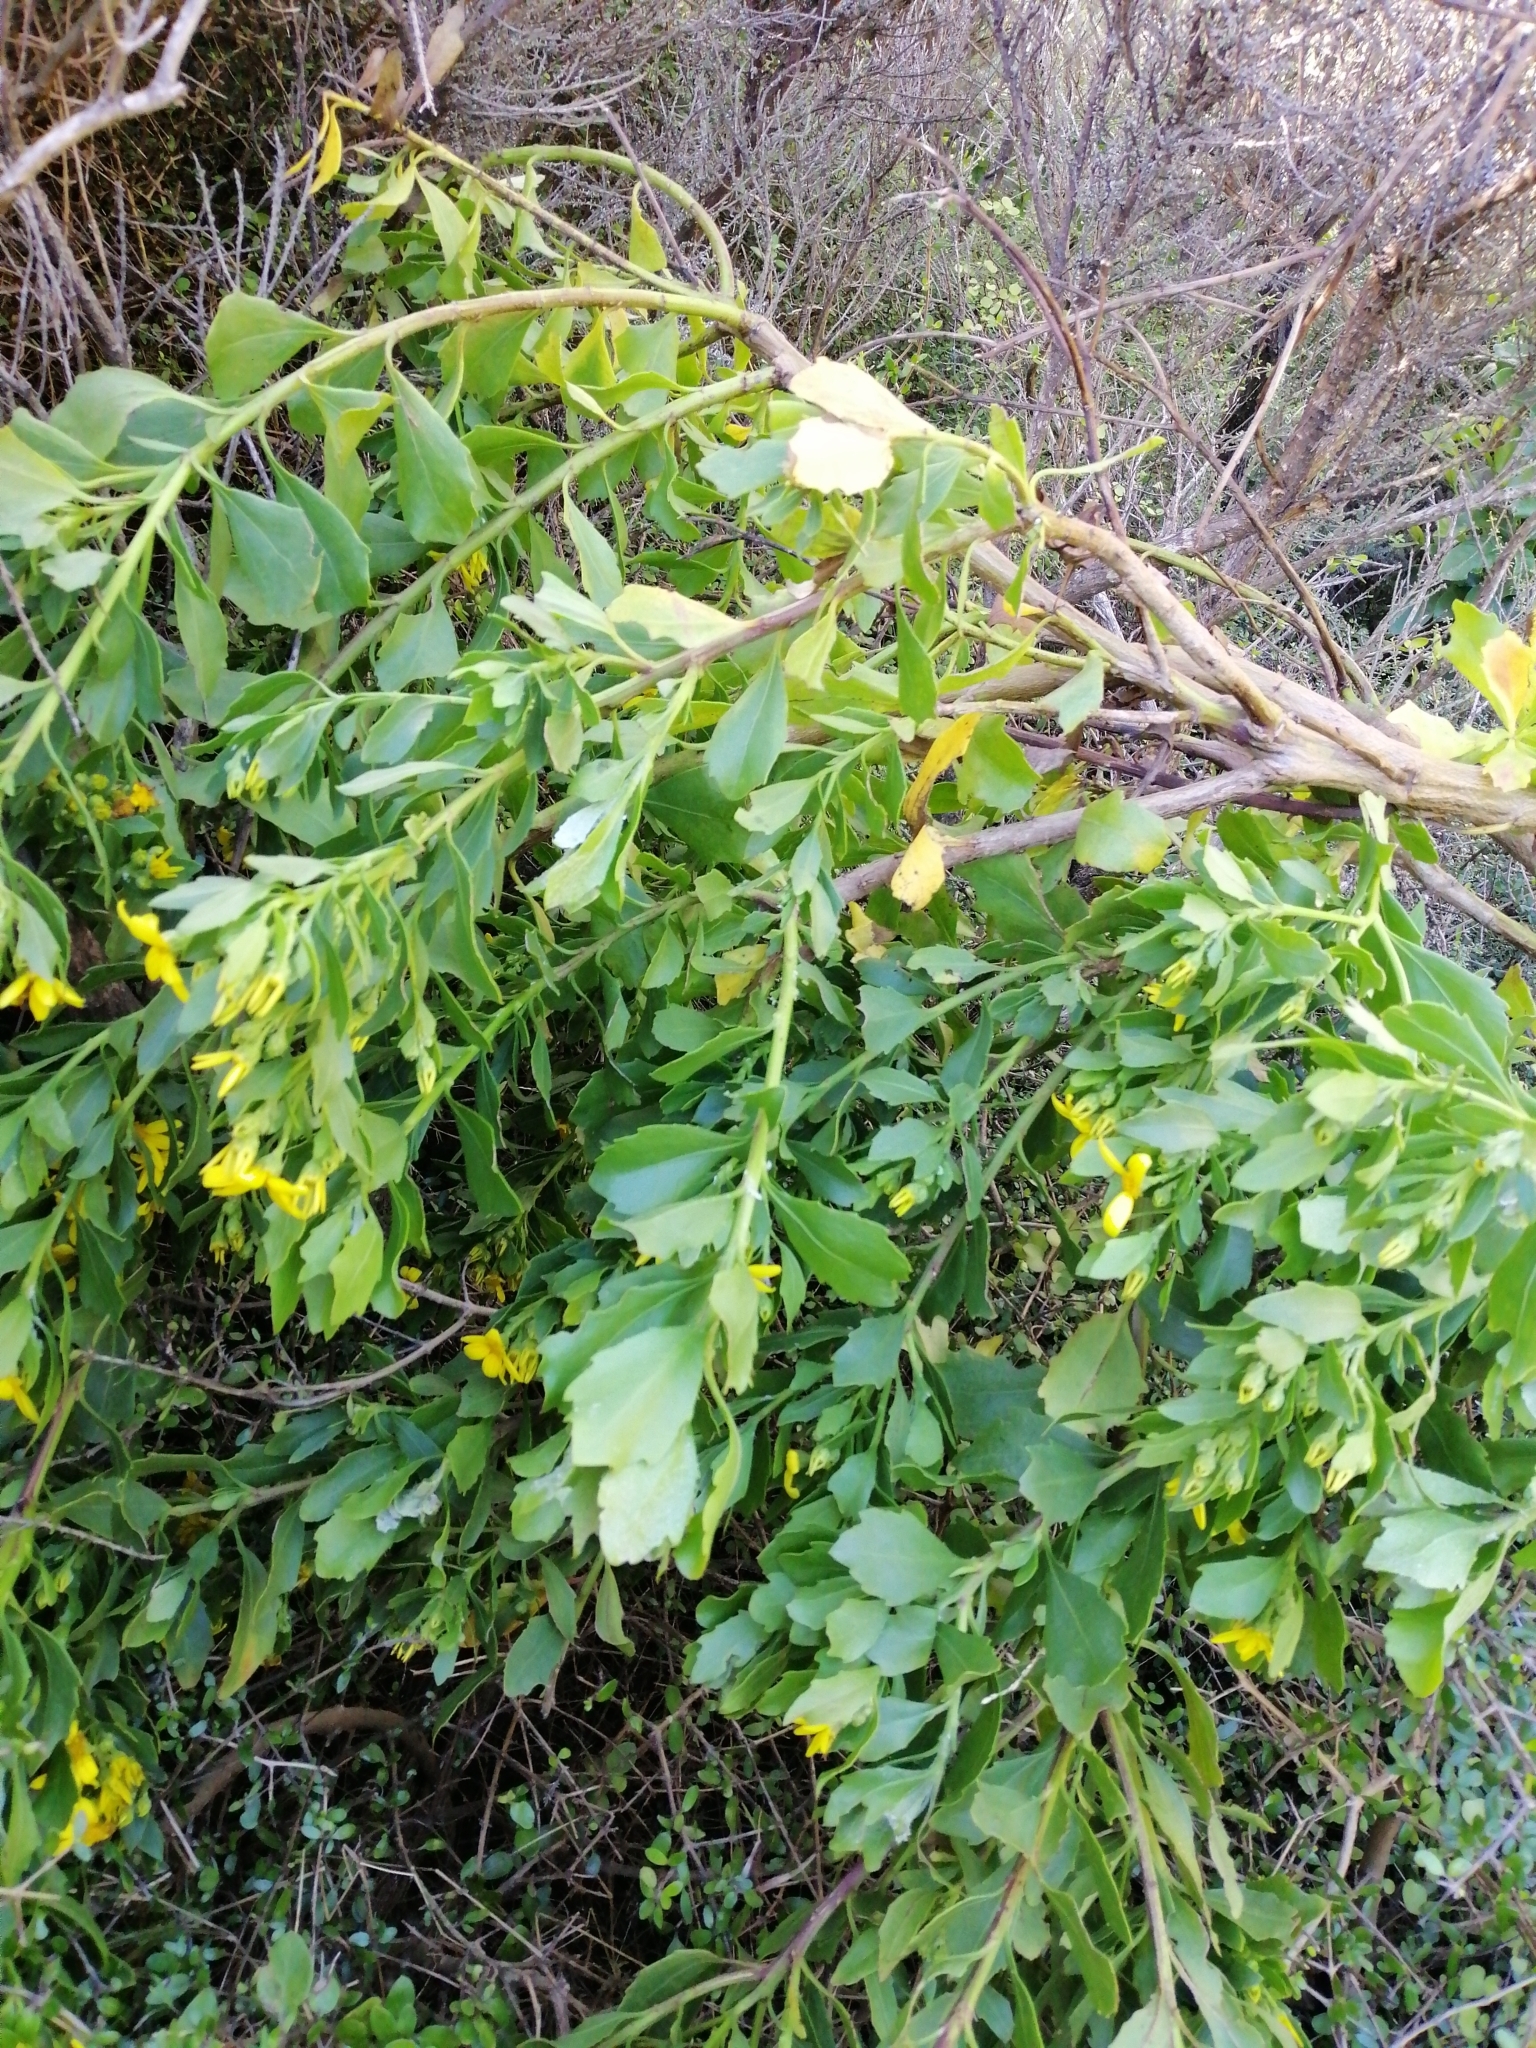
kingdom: Plantae
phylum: Tracheophyta
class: Magnoliopsida
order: Asterales
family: Asteraceae
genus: Osteospermum
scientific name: Osteospermum moniliferum
